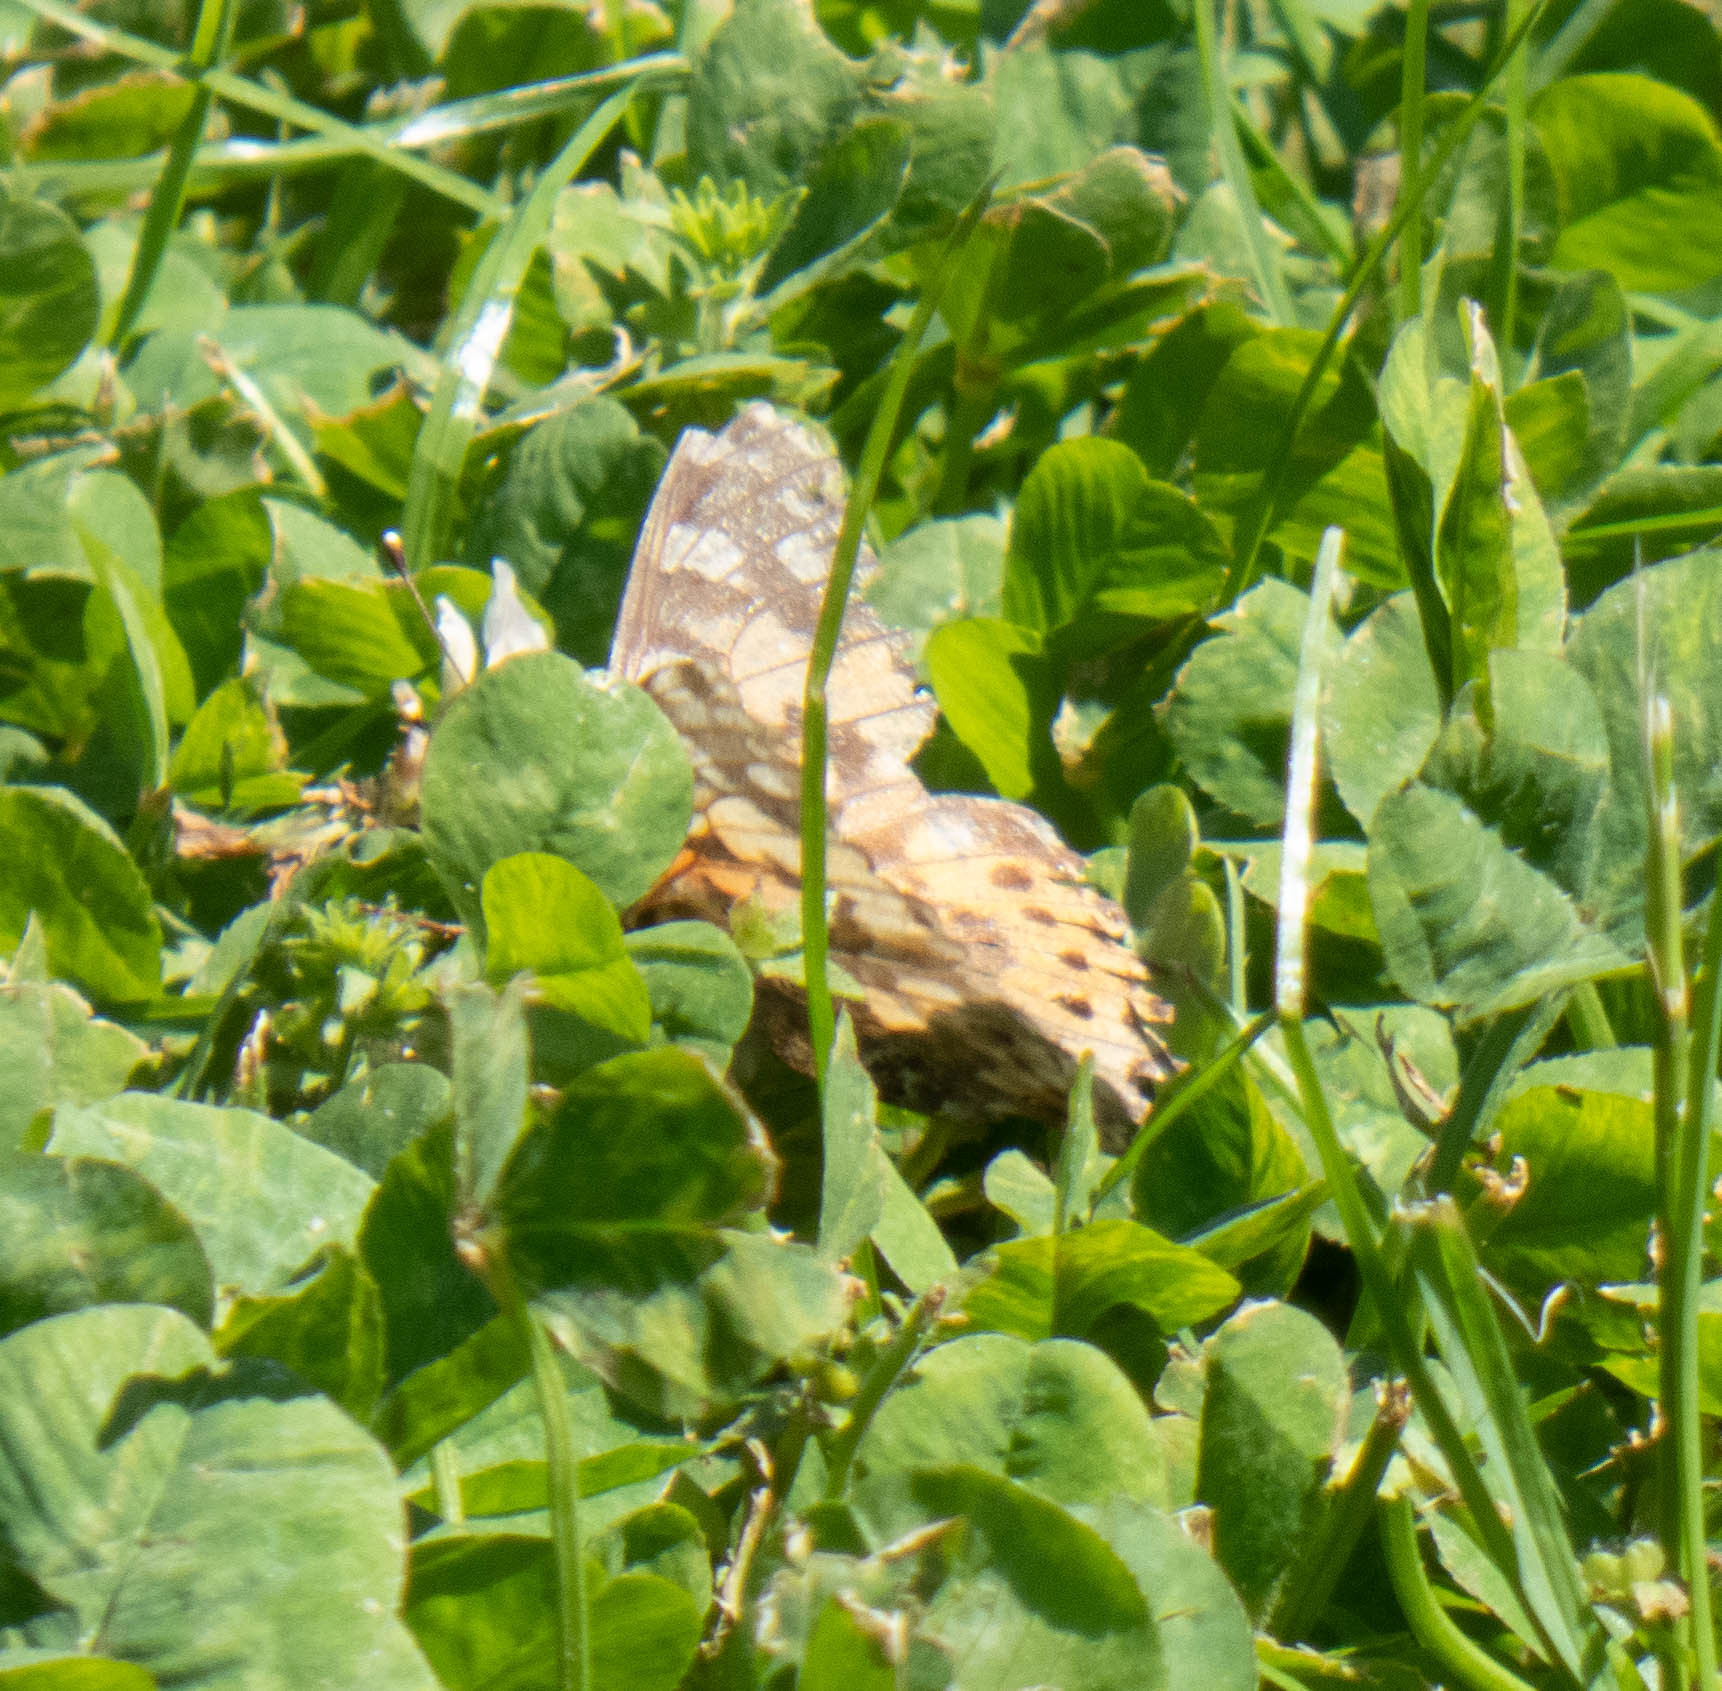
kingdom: Animalia
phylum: Arthropoda
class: Insecta
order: Lepidoptera
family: Nymphalidae
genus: Vanessa
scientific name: Vanessa cardui
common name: Painted lady
